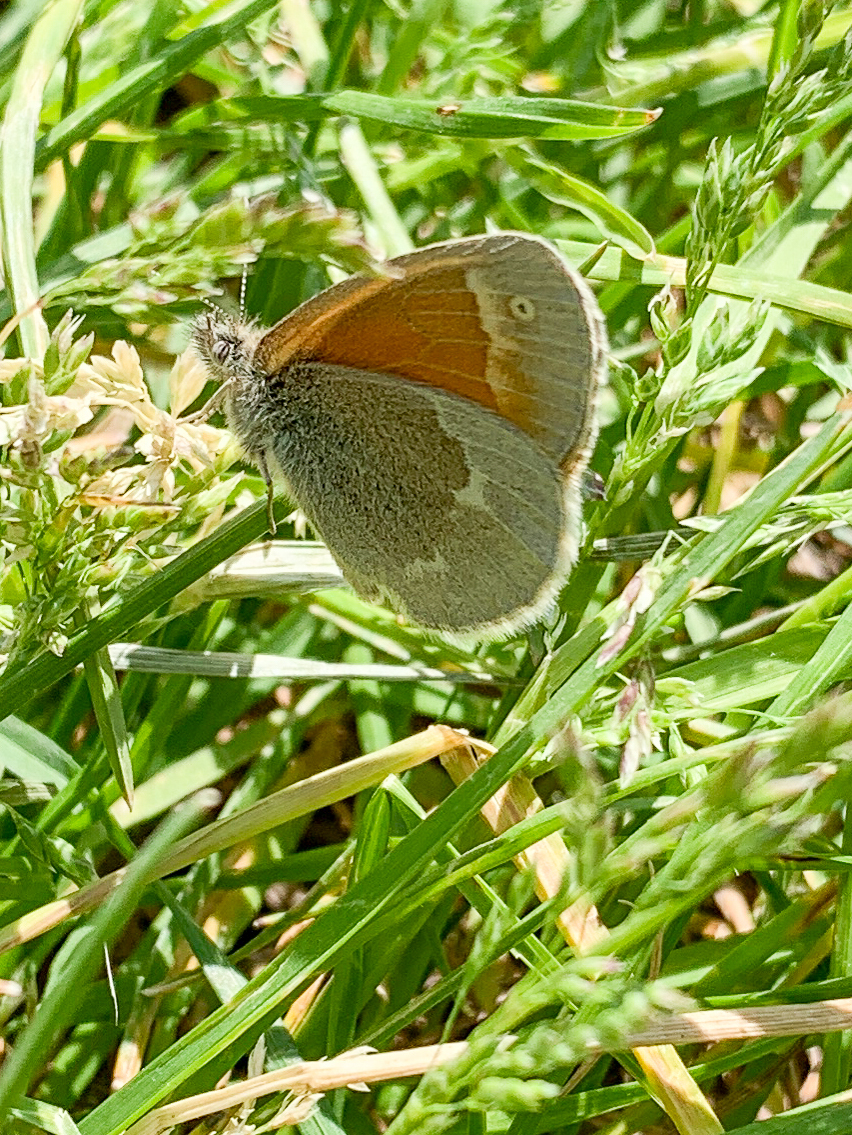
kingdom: Animalia
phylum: Arthropoda
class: Insecta
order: Lepidoptera
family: Nymphalidae
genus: Coenonympha
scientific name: Coenonympha california
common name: Common ringlet
